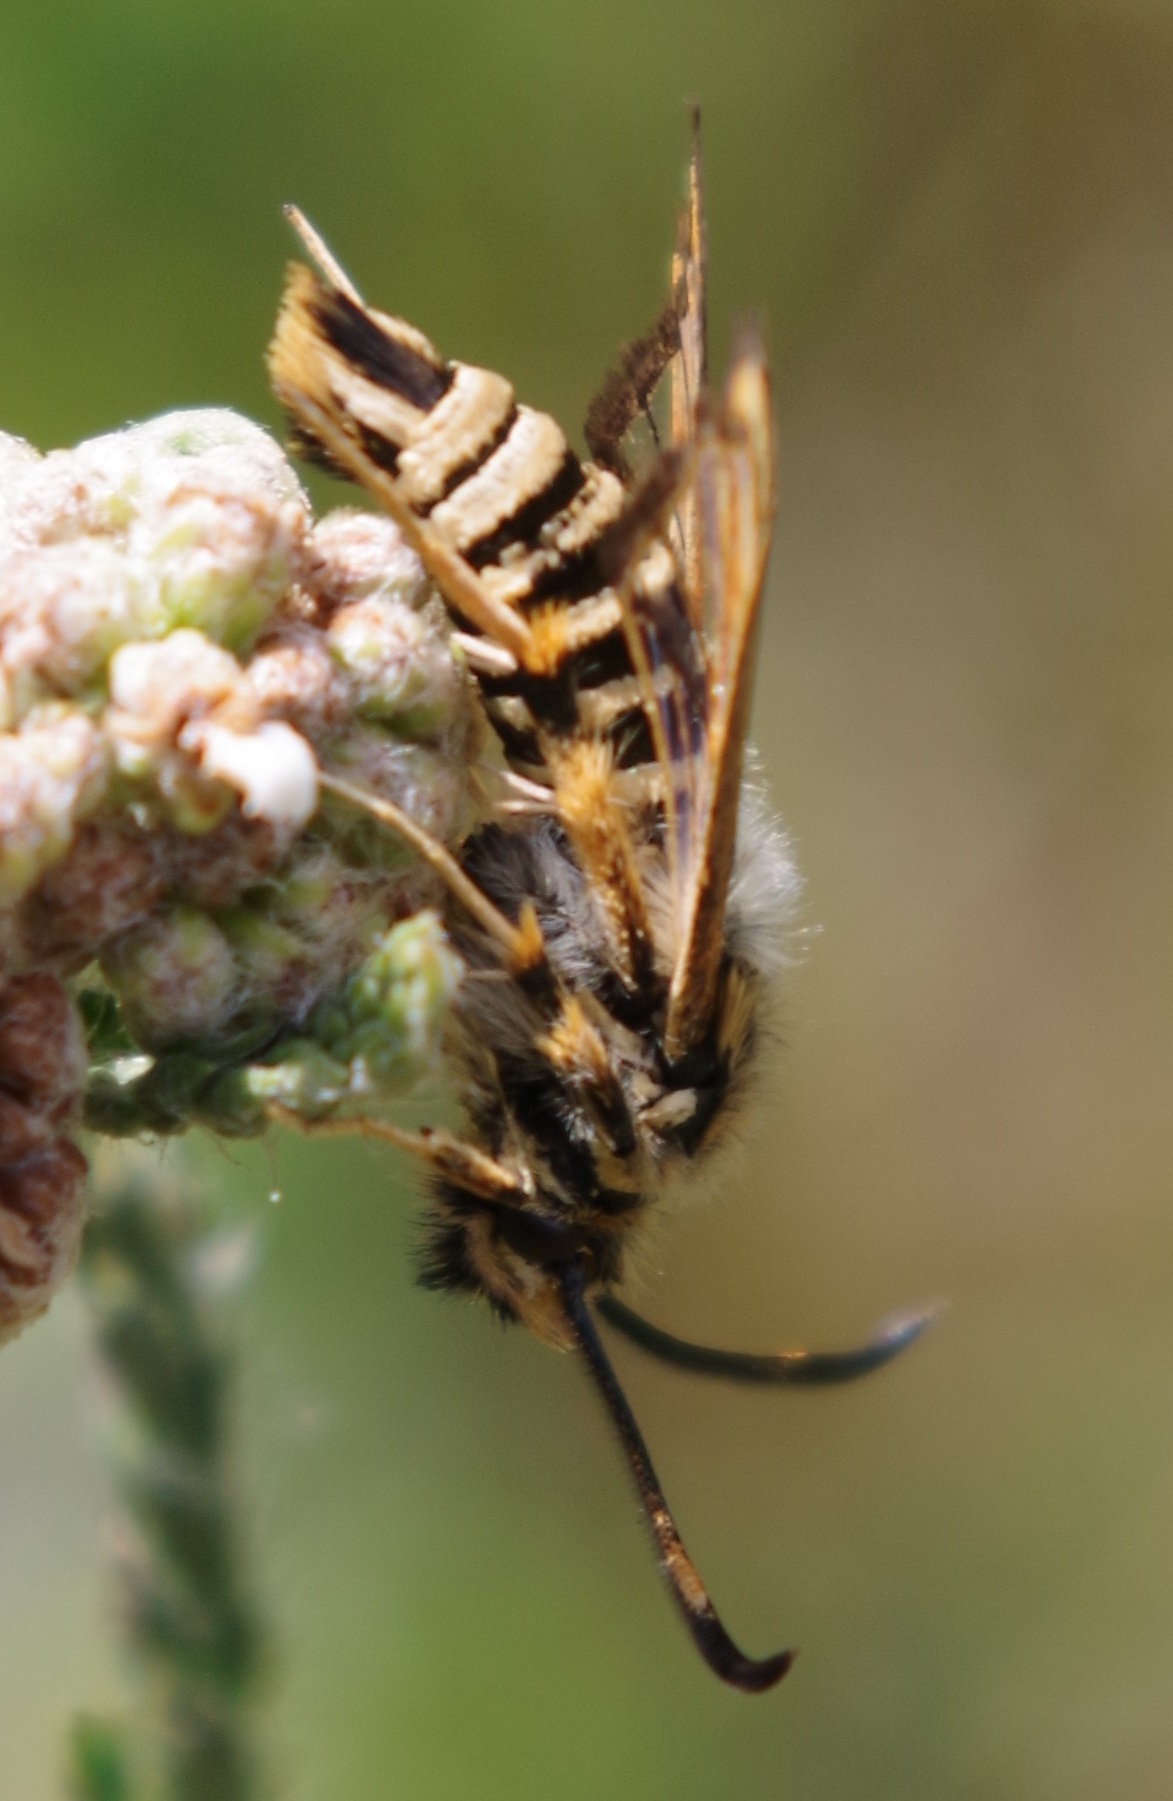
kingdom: Animalia
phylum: Arthropoda
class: Insecta
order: Lepidoptera
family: Sesiidae
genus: Bembecia
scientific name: Bembecia ichneumoniformis
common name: Six-belted clearwing
